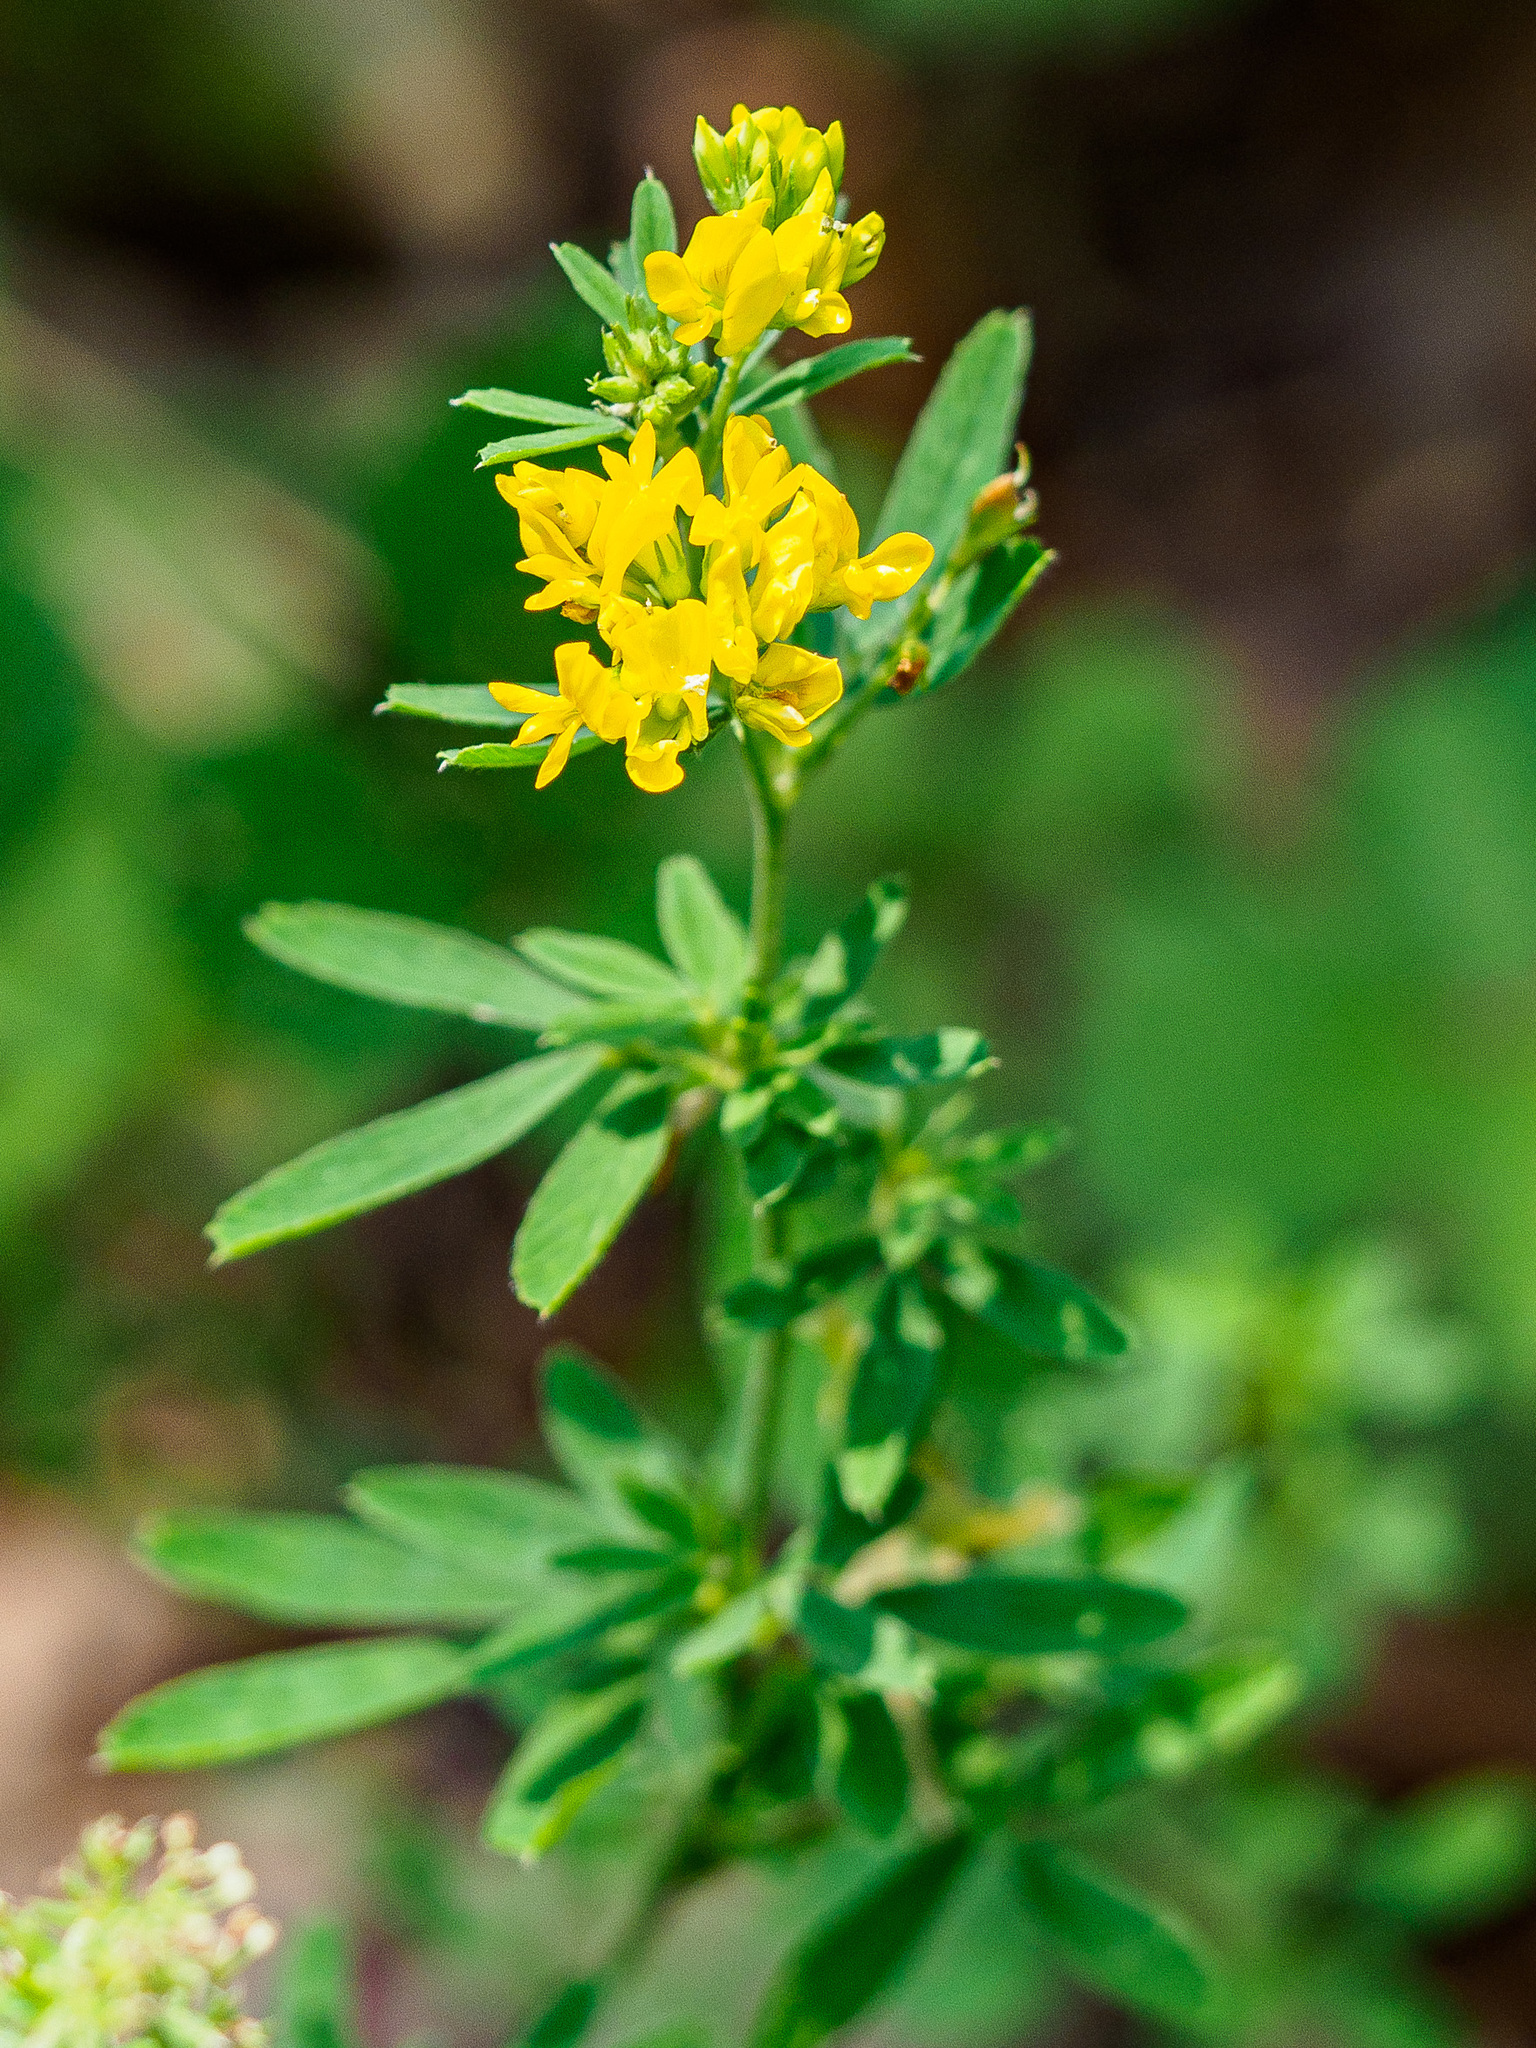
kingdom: Plantae
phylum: Tracheophyta
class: Magnoliopsida
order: Fabales
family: Fabaceae
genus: Medicago
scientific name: Medicago falcata
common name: Sickle medick
